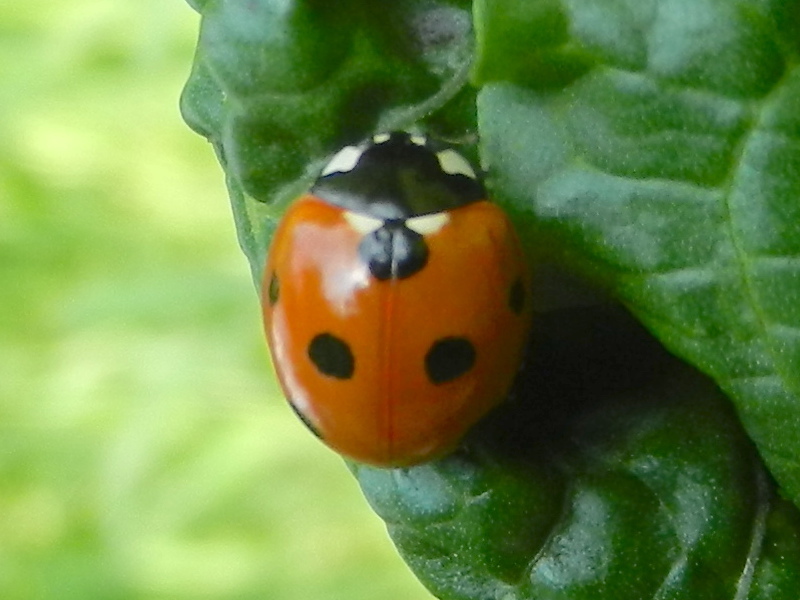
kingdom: Animalia
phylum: Arthropoda
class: Insecta
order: Coleoptera
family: Coccinellidae
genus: Coccinella
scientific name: Coccinella septempunctata
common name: Sevenspotted lady beetle
